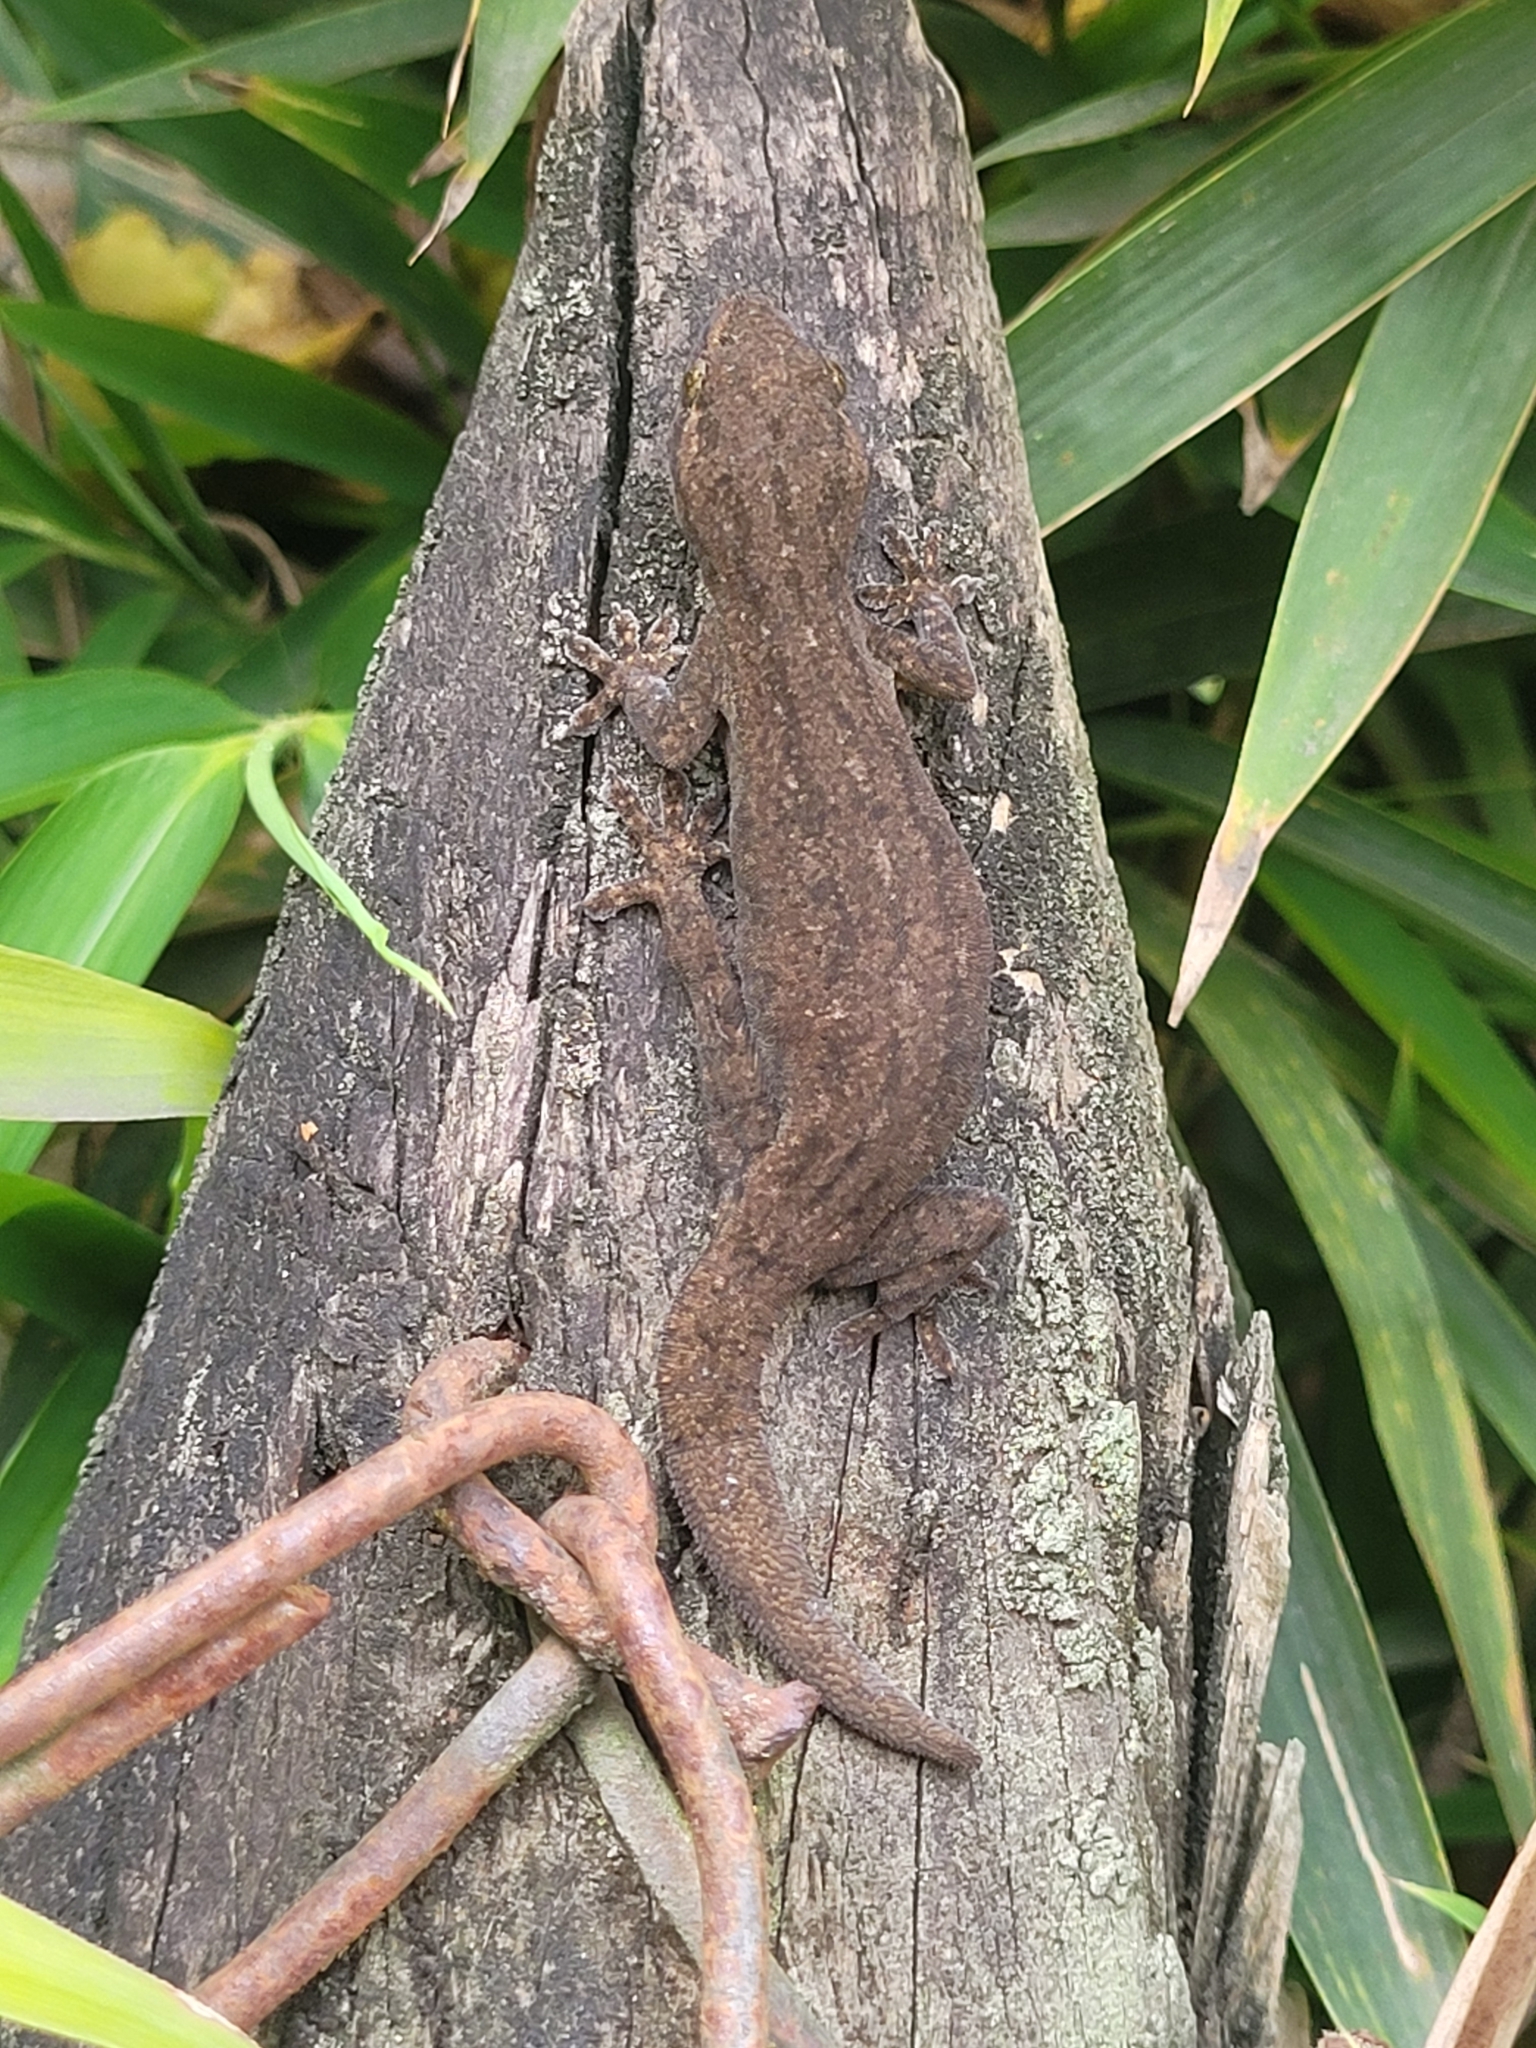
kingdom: Animalia
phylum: Chordata
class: Squamata
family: Gekkonidae
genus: Hemidactylus
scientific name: Hemidactylus frenatus
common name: Common house gecko
